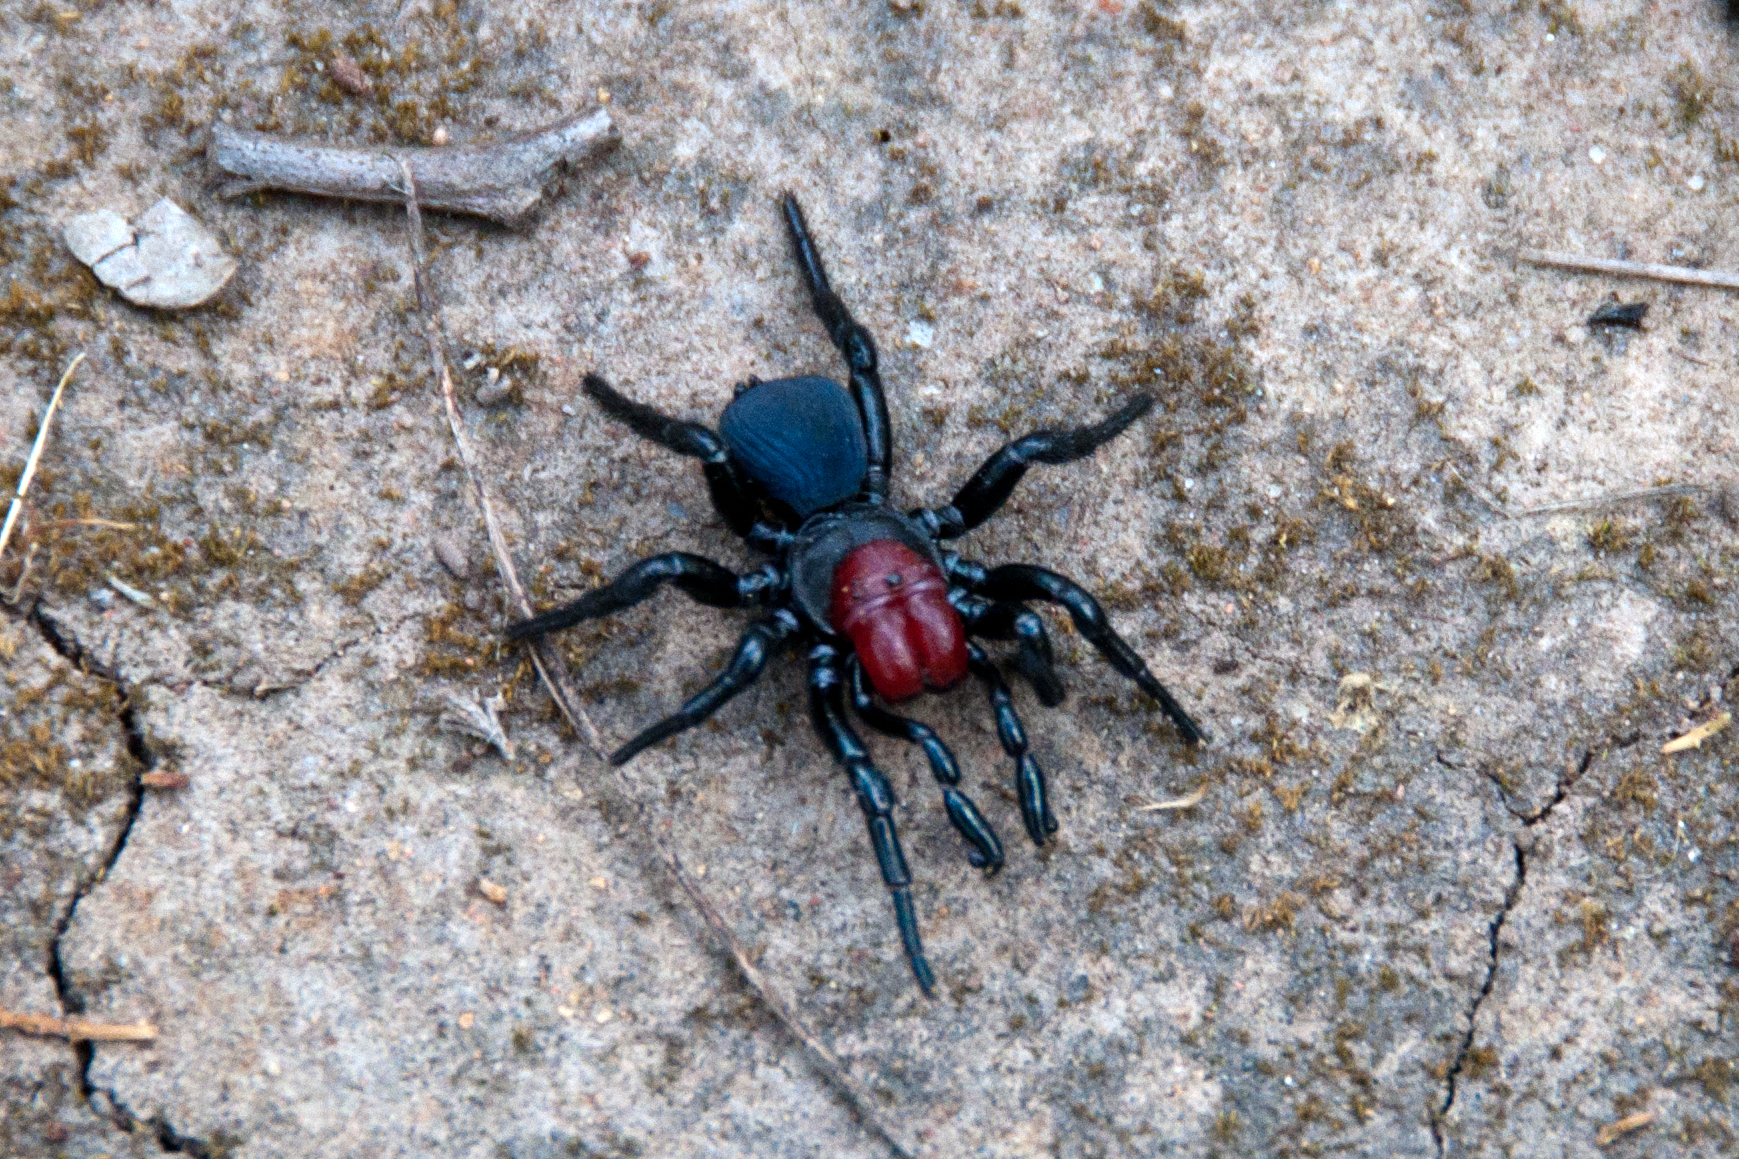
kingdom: Animalia
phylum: Arthropoda
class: Arachnida
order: Araneae
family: Actinopodidae
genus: Missulena
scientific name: Missulena occatoria
